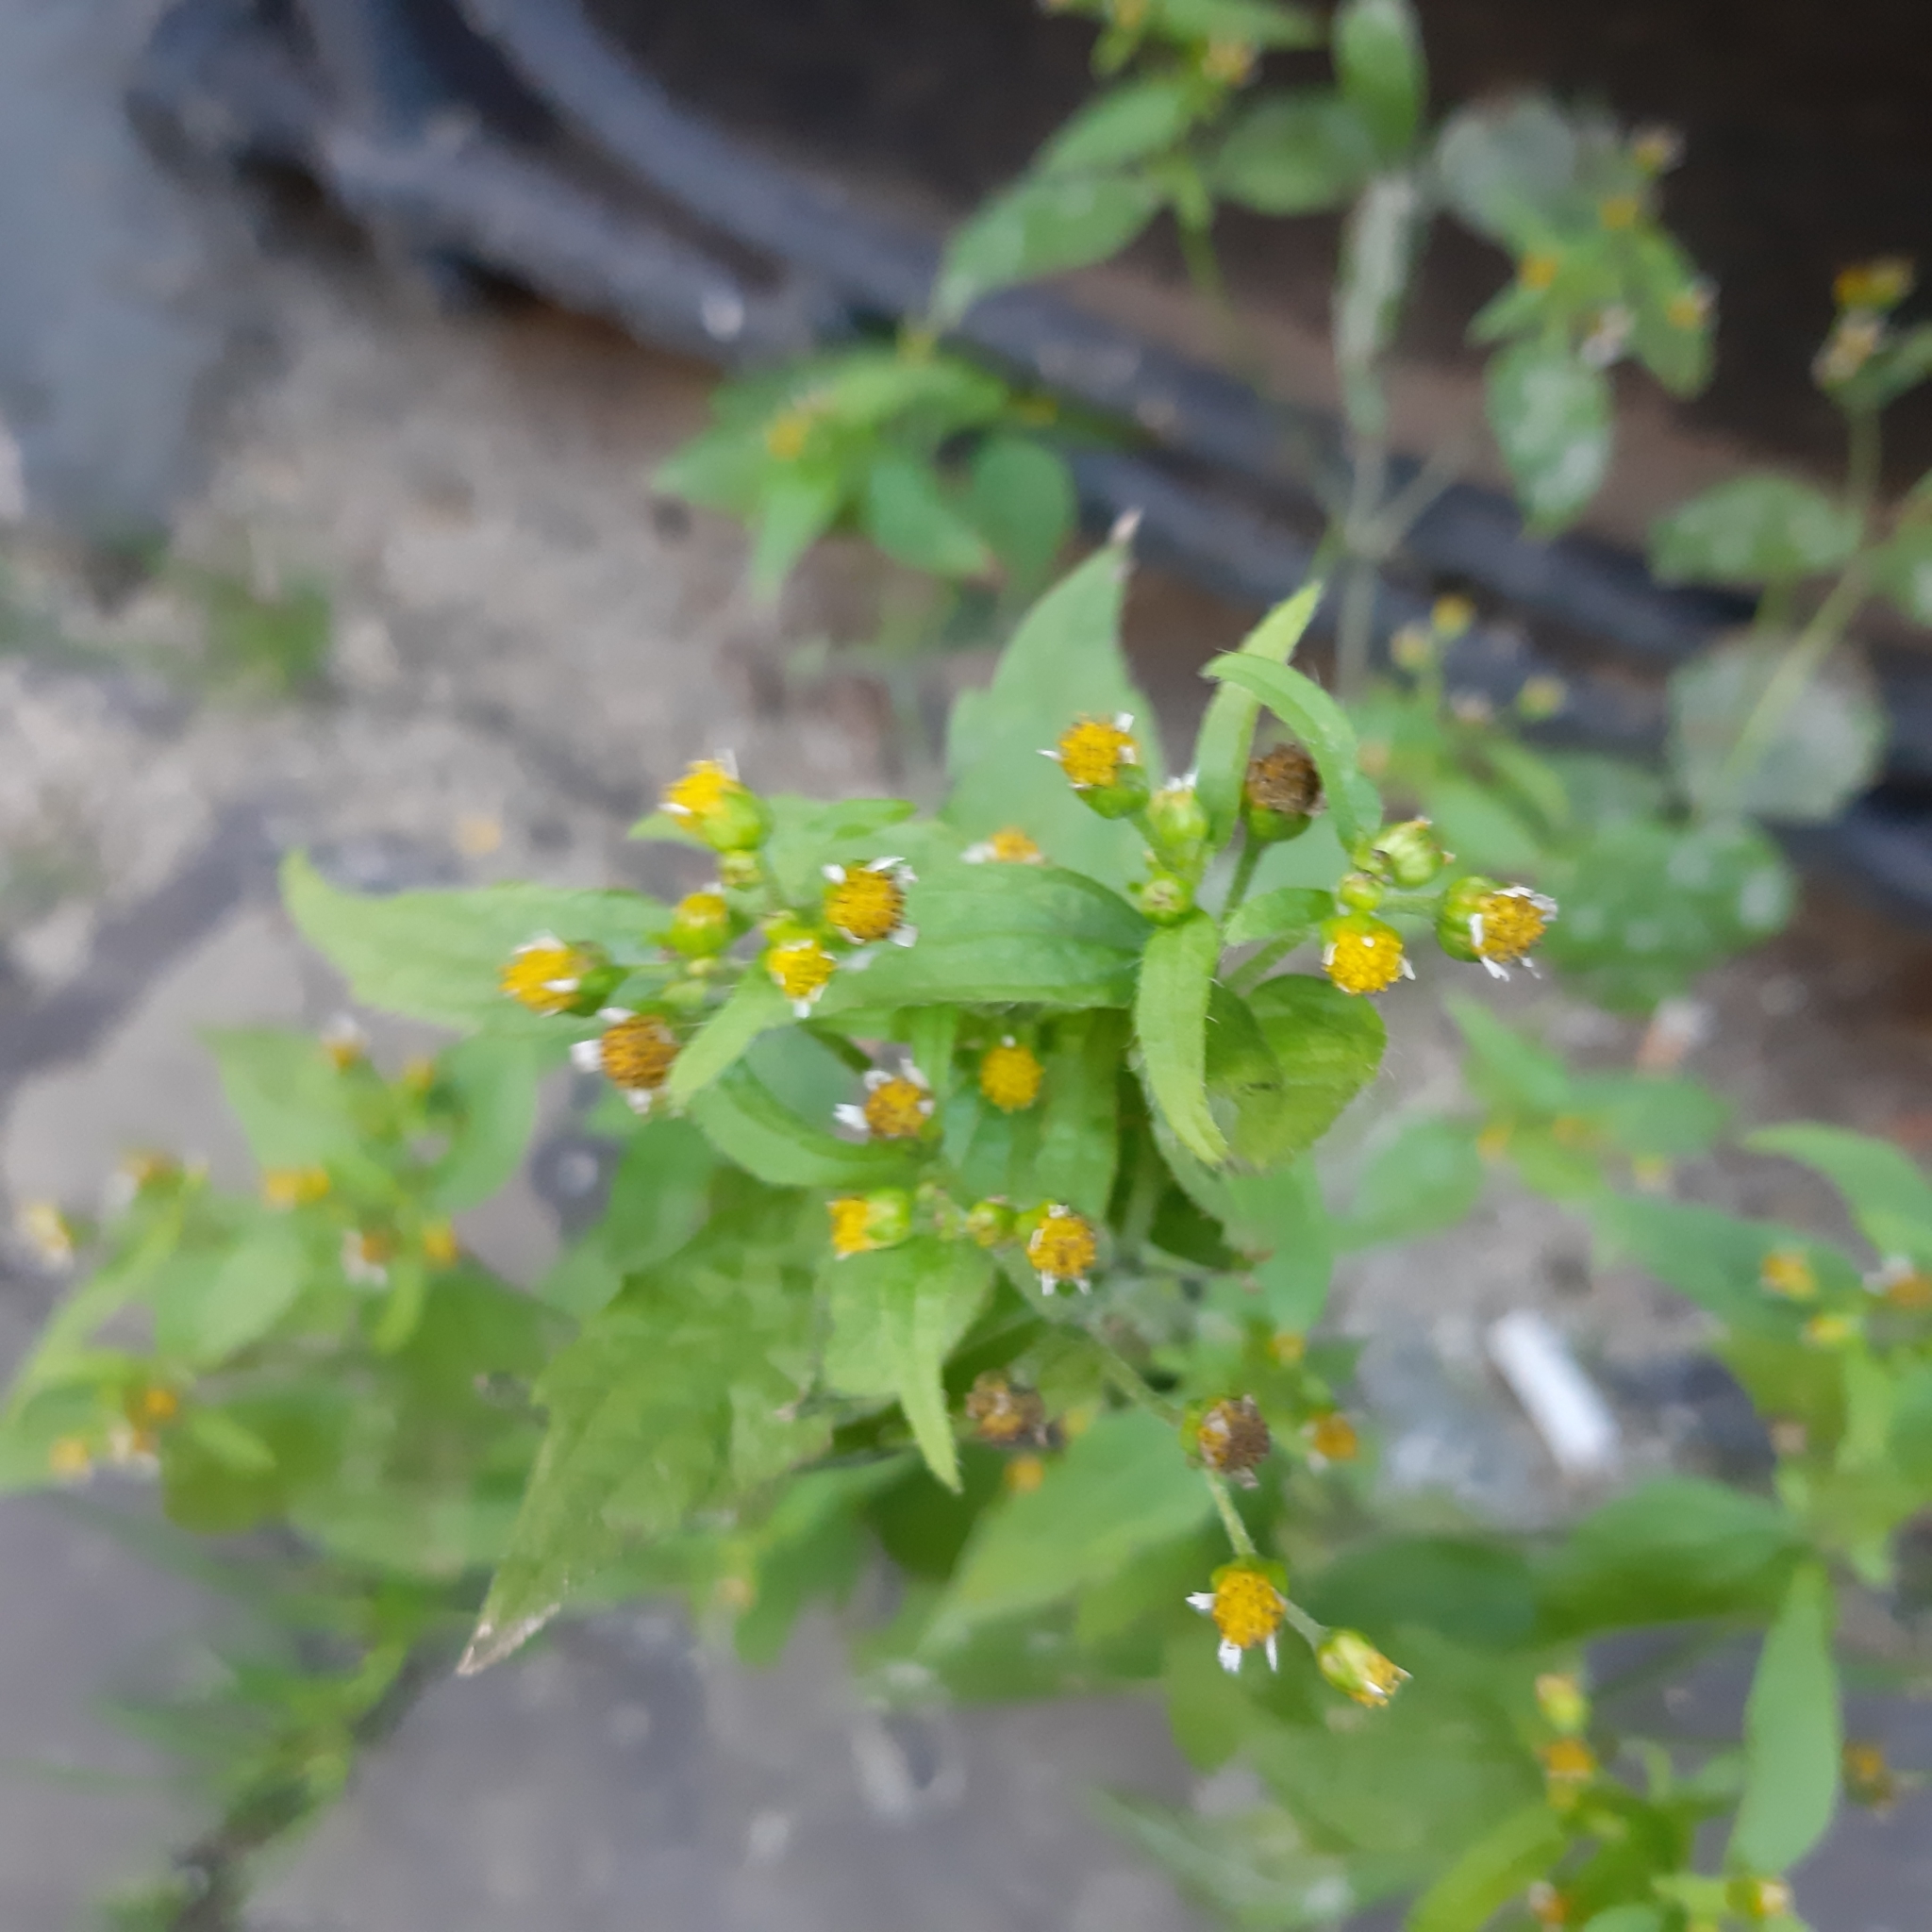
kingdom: Plantae
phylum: Tracheophyta
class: Magnoliopsida
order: Asterales
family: Asteraceae
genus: Galinsoga
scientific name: Galinsoga quadriradiata
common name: Shaggy soldier
